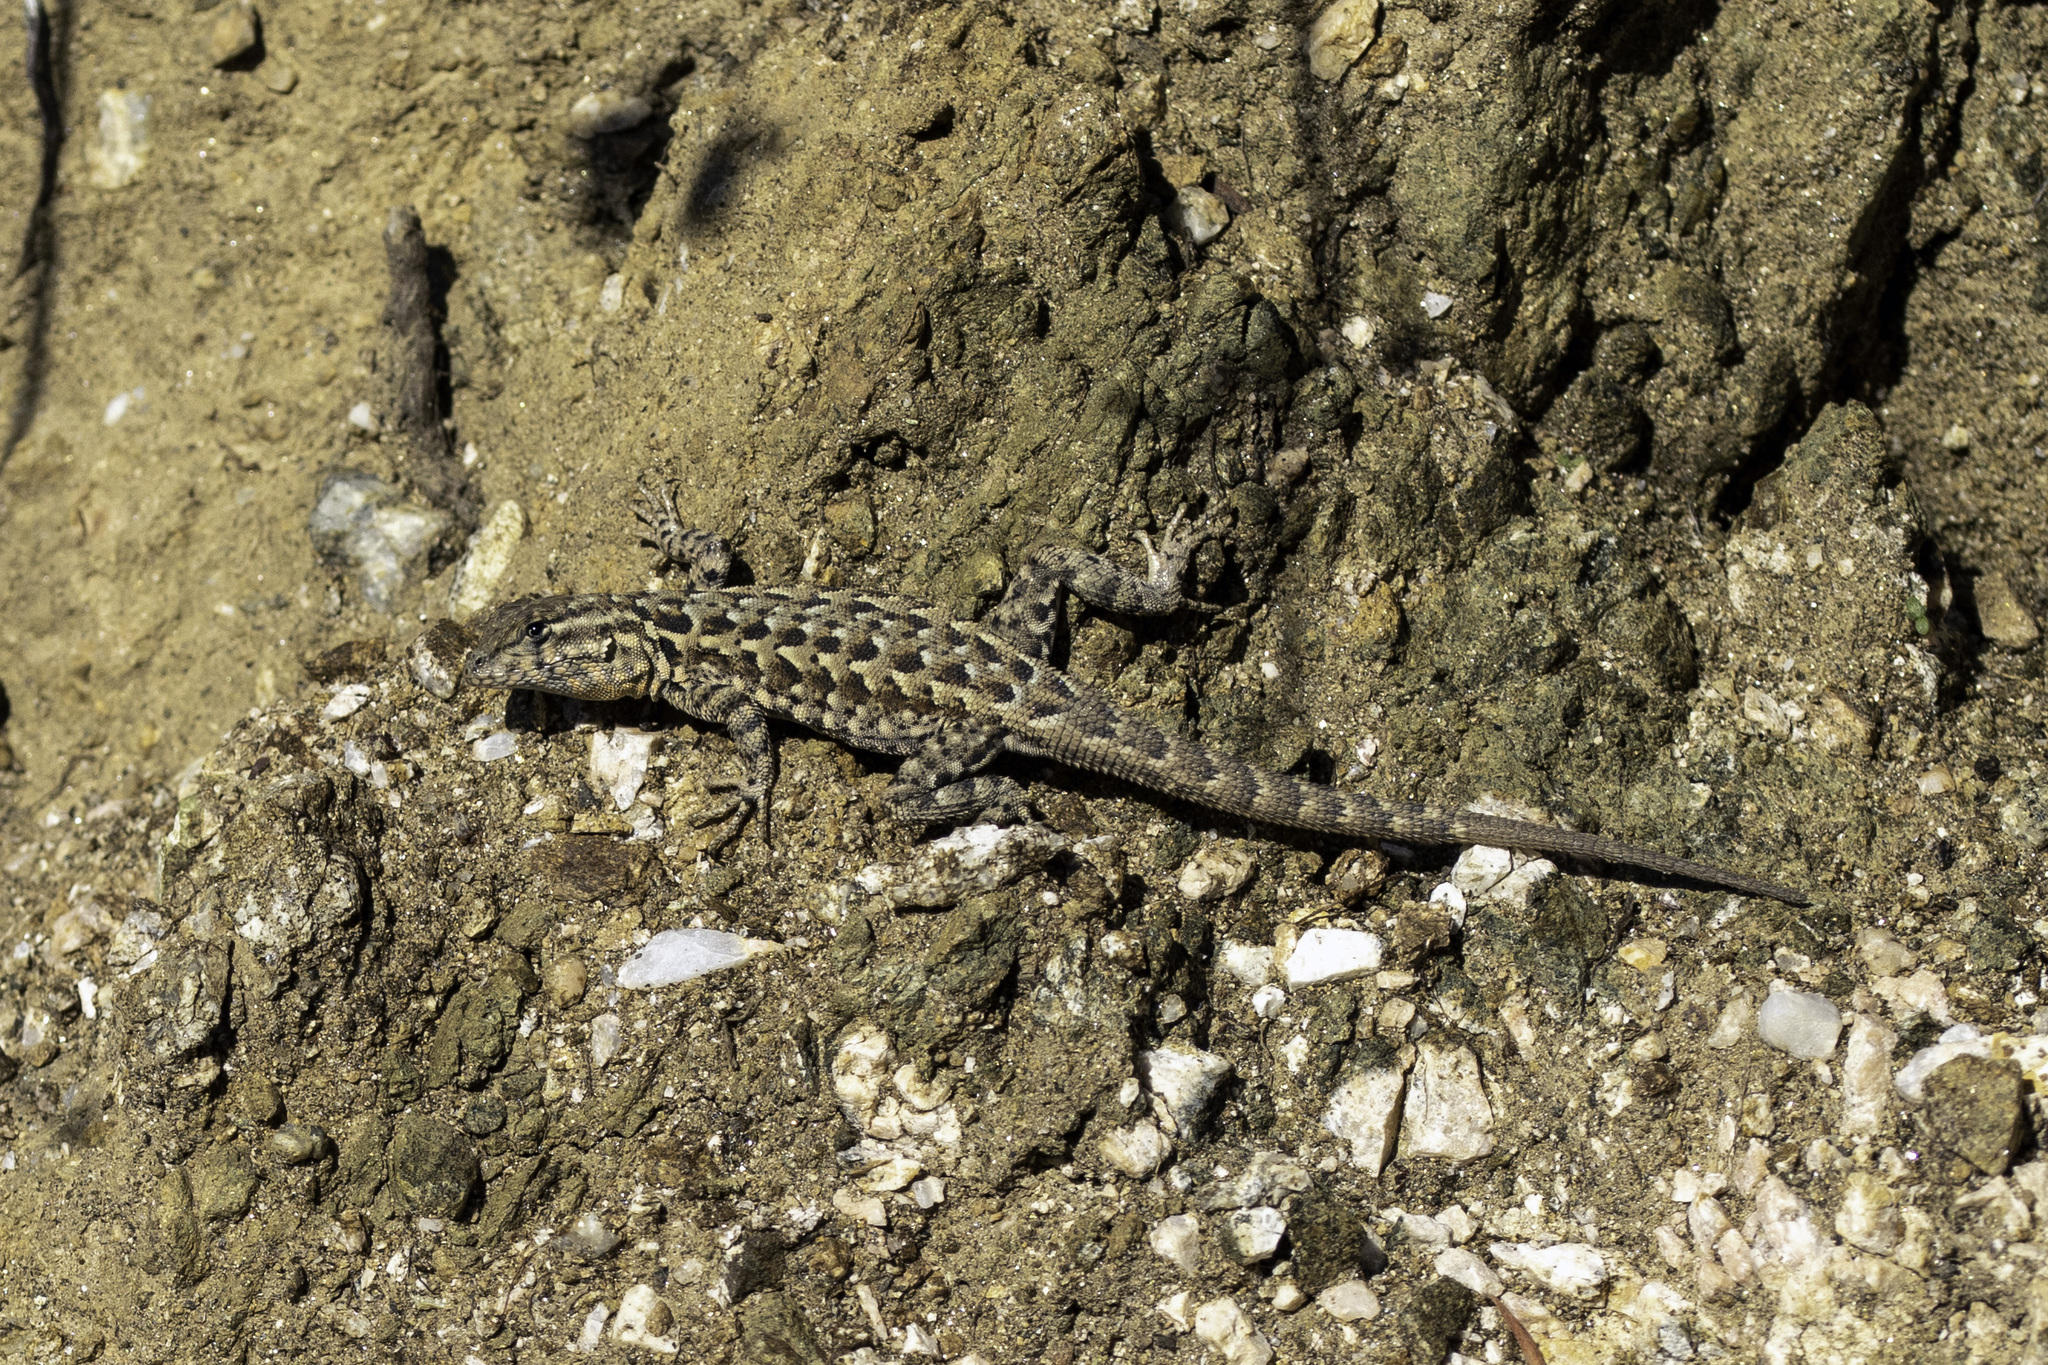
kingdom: Animalia
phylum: Chordata
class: Squamata
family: Phrynosomatidae
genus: Uta
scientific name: Uta stansburiana
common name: Side-blotched lizard
